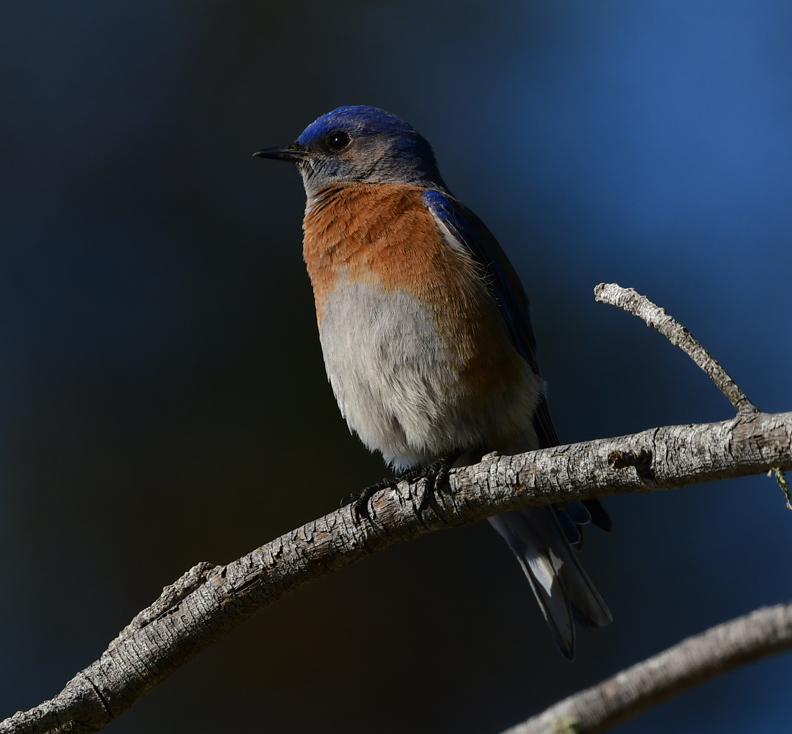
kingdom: Animalia
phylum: Chordata
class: Aves
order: Passeriformes
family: Turdidae
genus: Sialia
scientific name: Sialia mexicana
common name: Western bluebird
